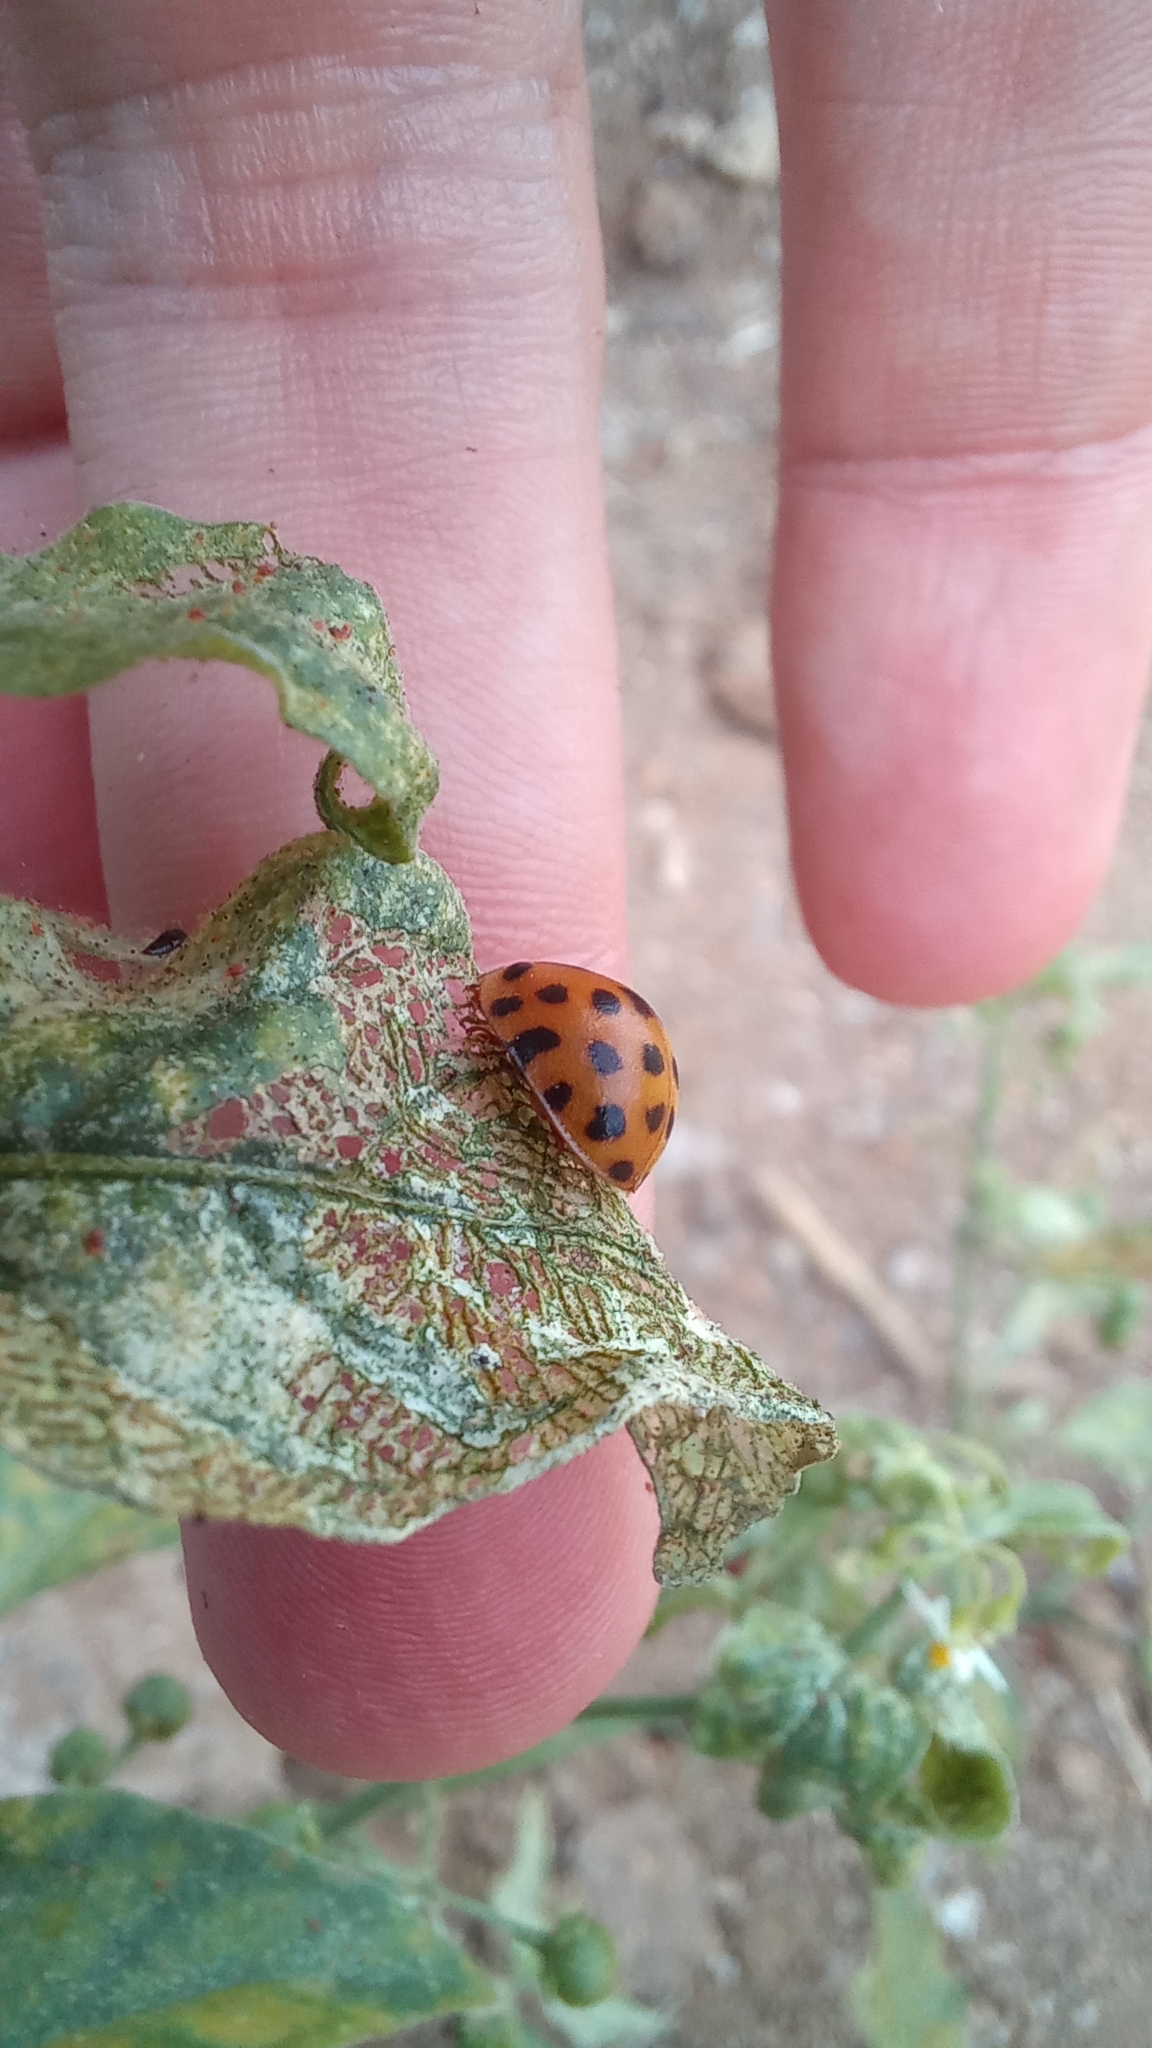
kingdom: Animalia
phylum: Arthropoda
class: Insecta
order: Coleoptera
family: Coccinellidae
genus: Henosepilachna
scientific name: Henosepilachna vigintioctopunctata
